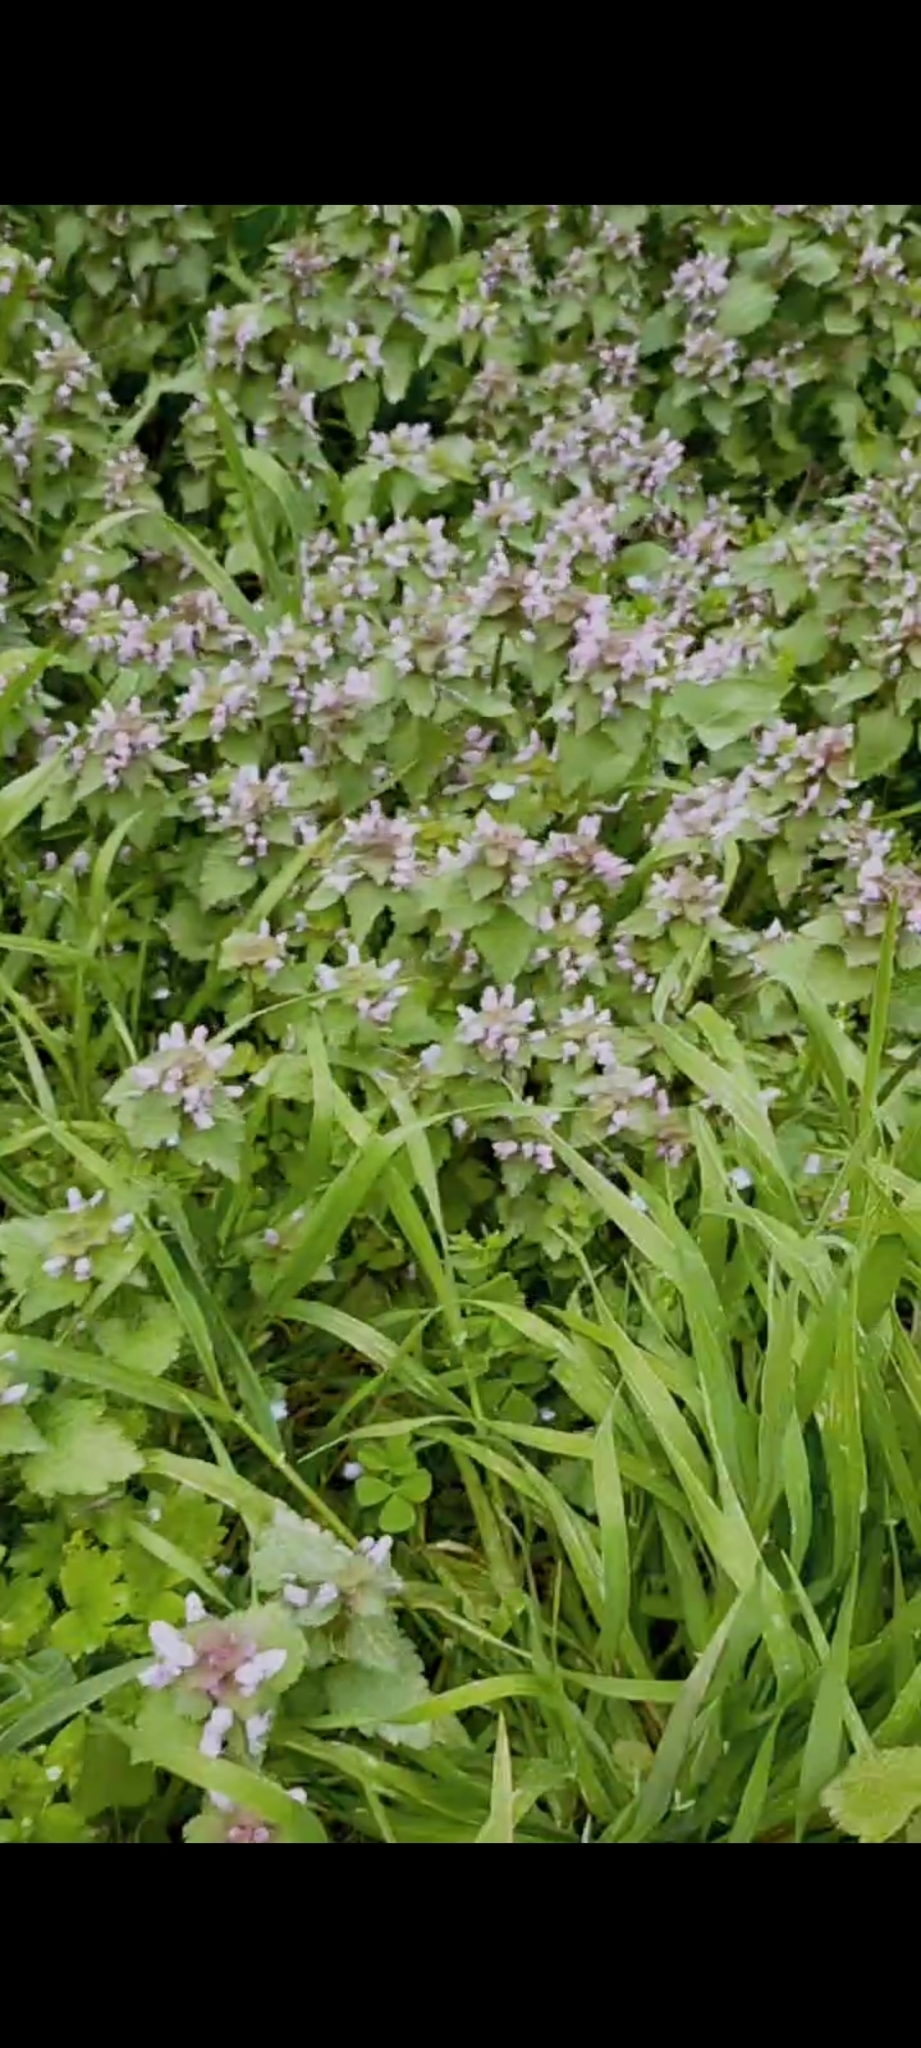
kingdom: Plantae
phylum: Tracheophyta
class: Magnoliopsida
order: Lamiales
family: Lamiaceae
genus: Lamium
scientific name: Lamium purpureum
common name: Red dead-nettle
